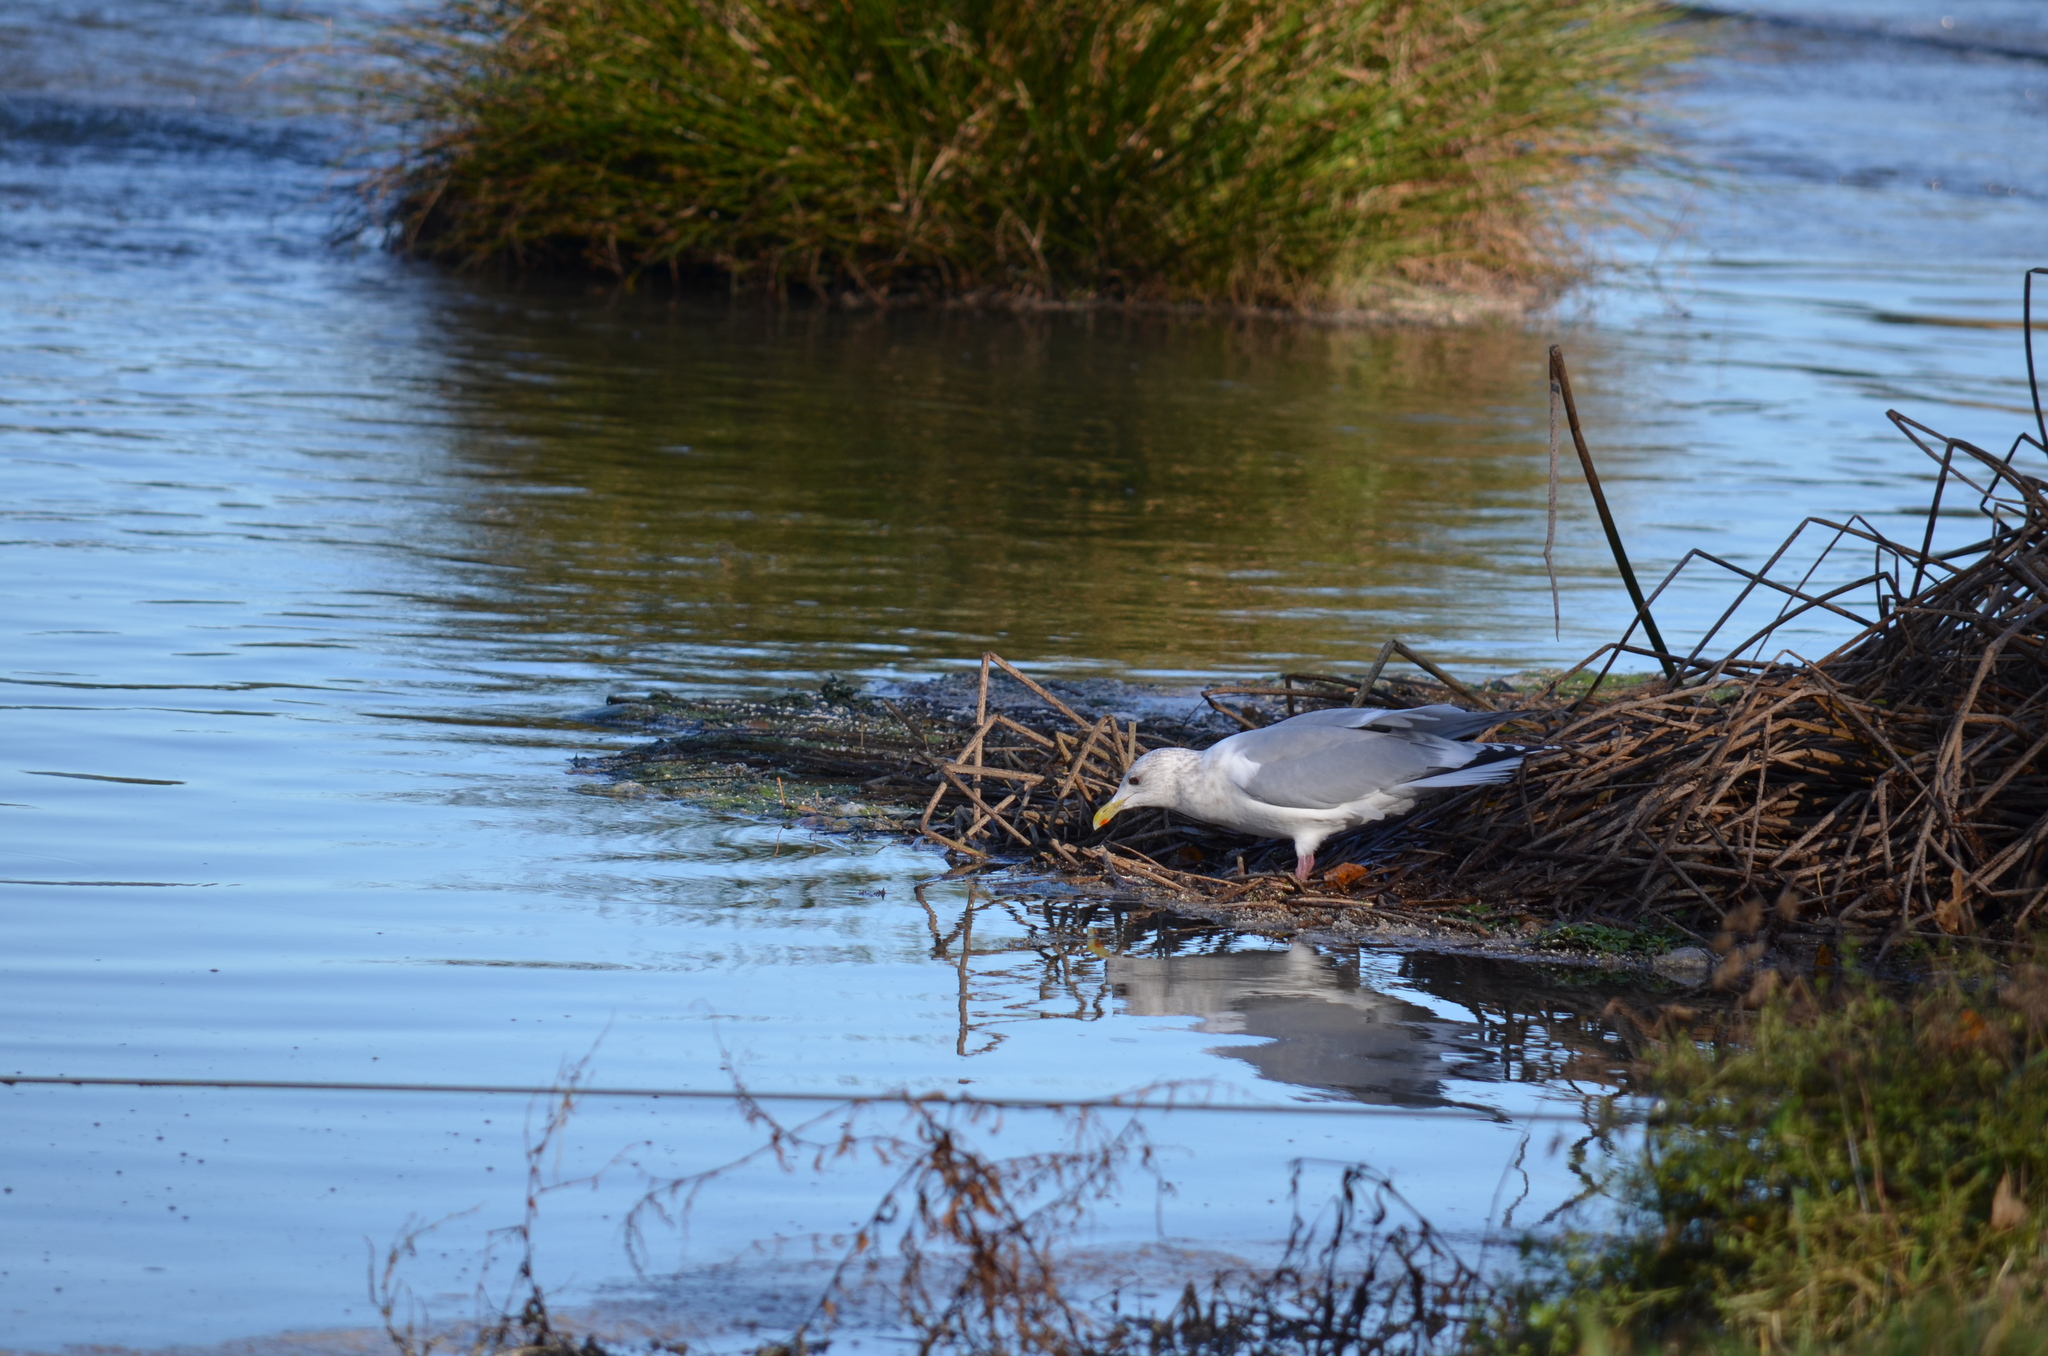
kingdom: Animalia
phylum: Chordata
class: Aves
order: Charadriiformes
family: Laridae
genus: Larus
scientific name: Larus
